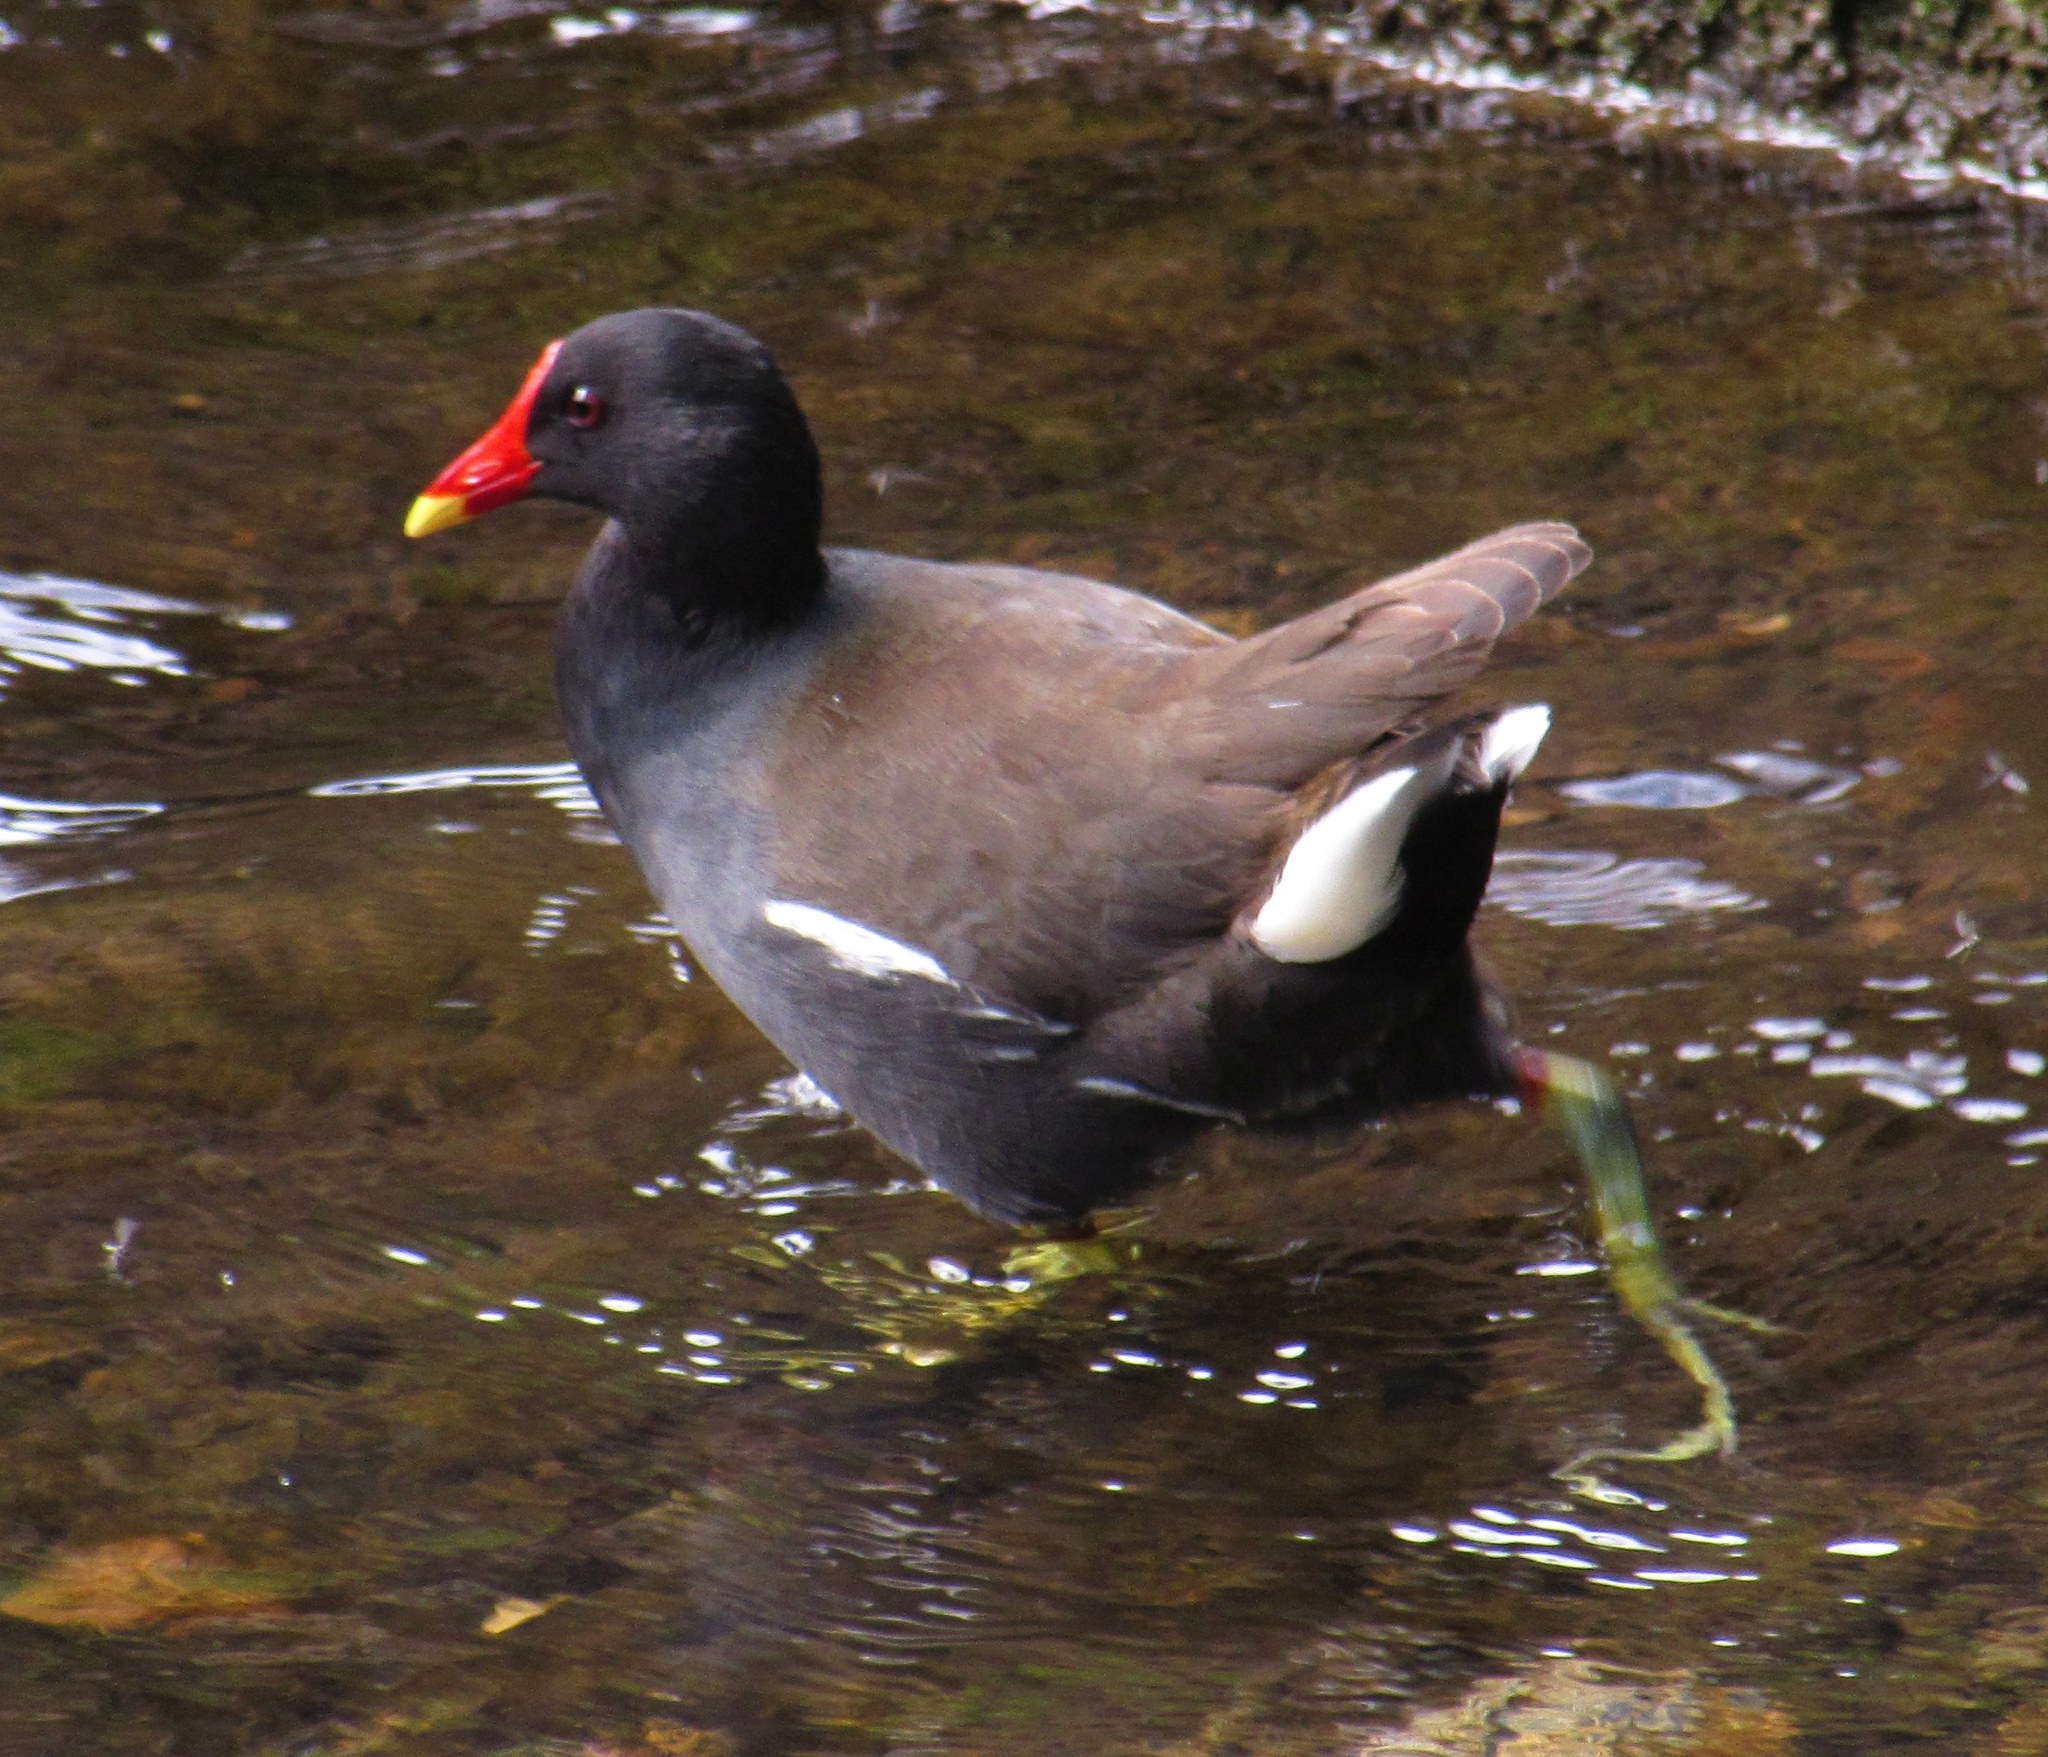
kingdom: Animalia
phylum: Chordata
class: Aves
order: Gruiformes
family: Rallidae
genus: Gallinula
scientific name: Gallinula chloropus
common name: Common moorhen
